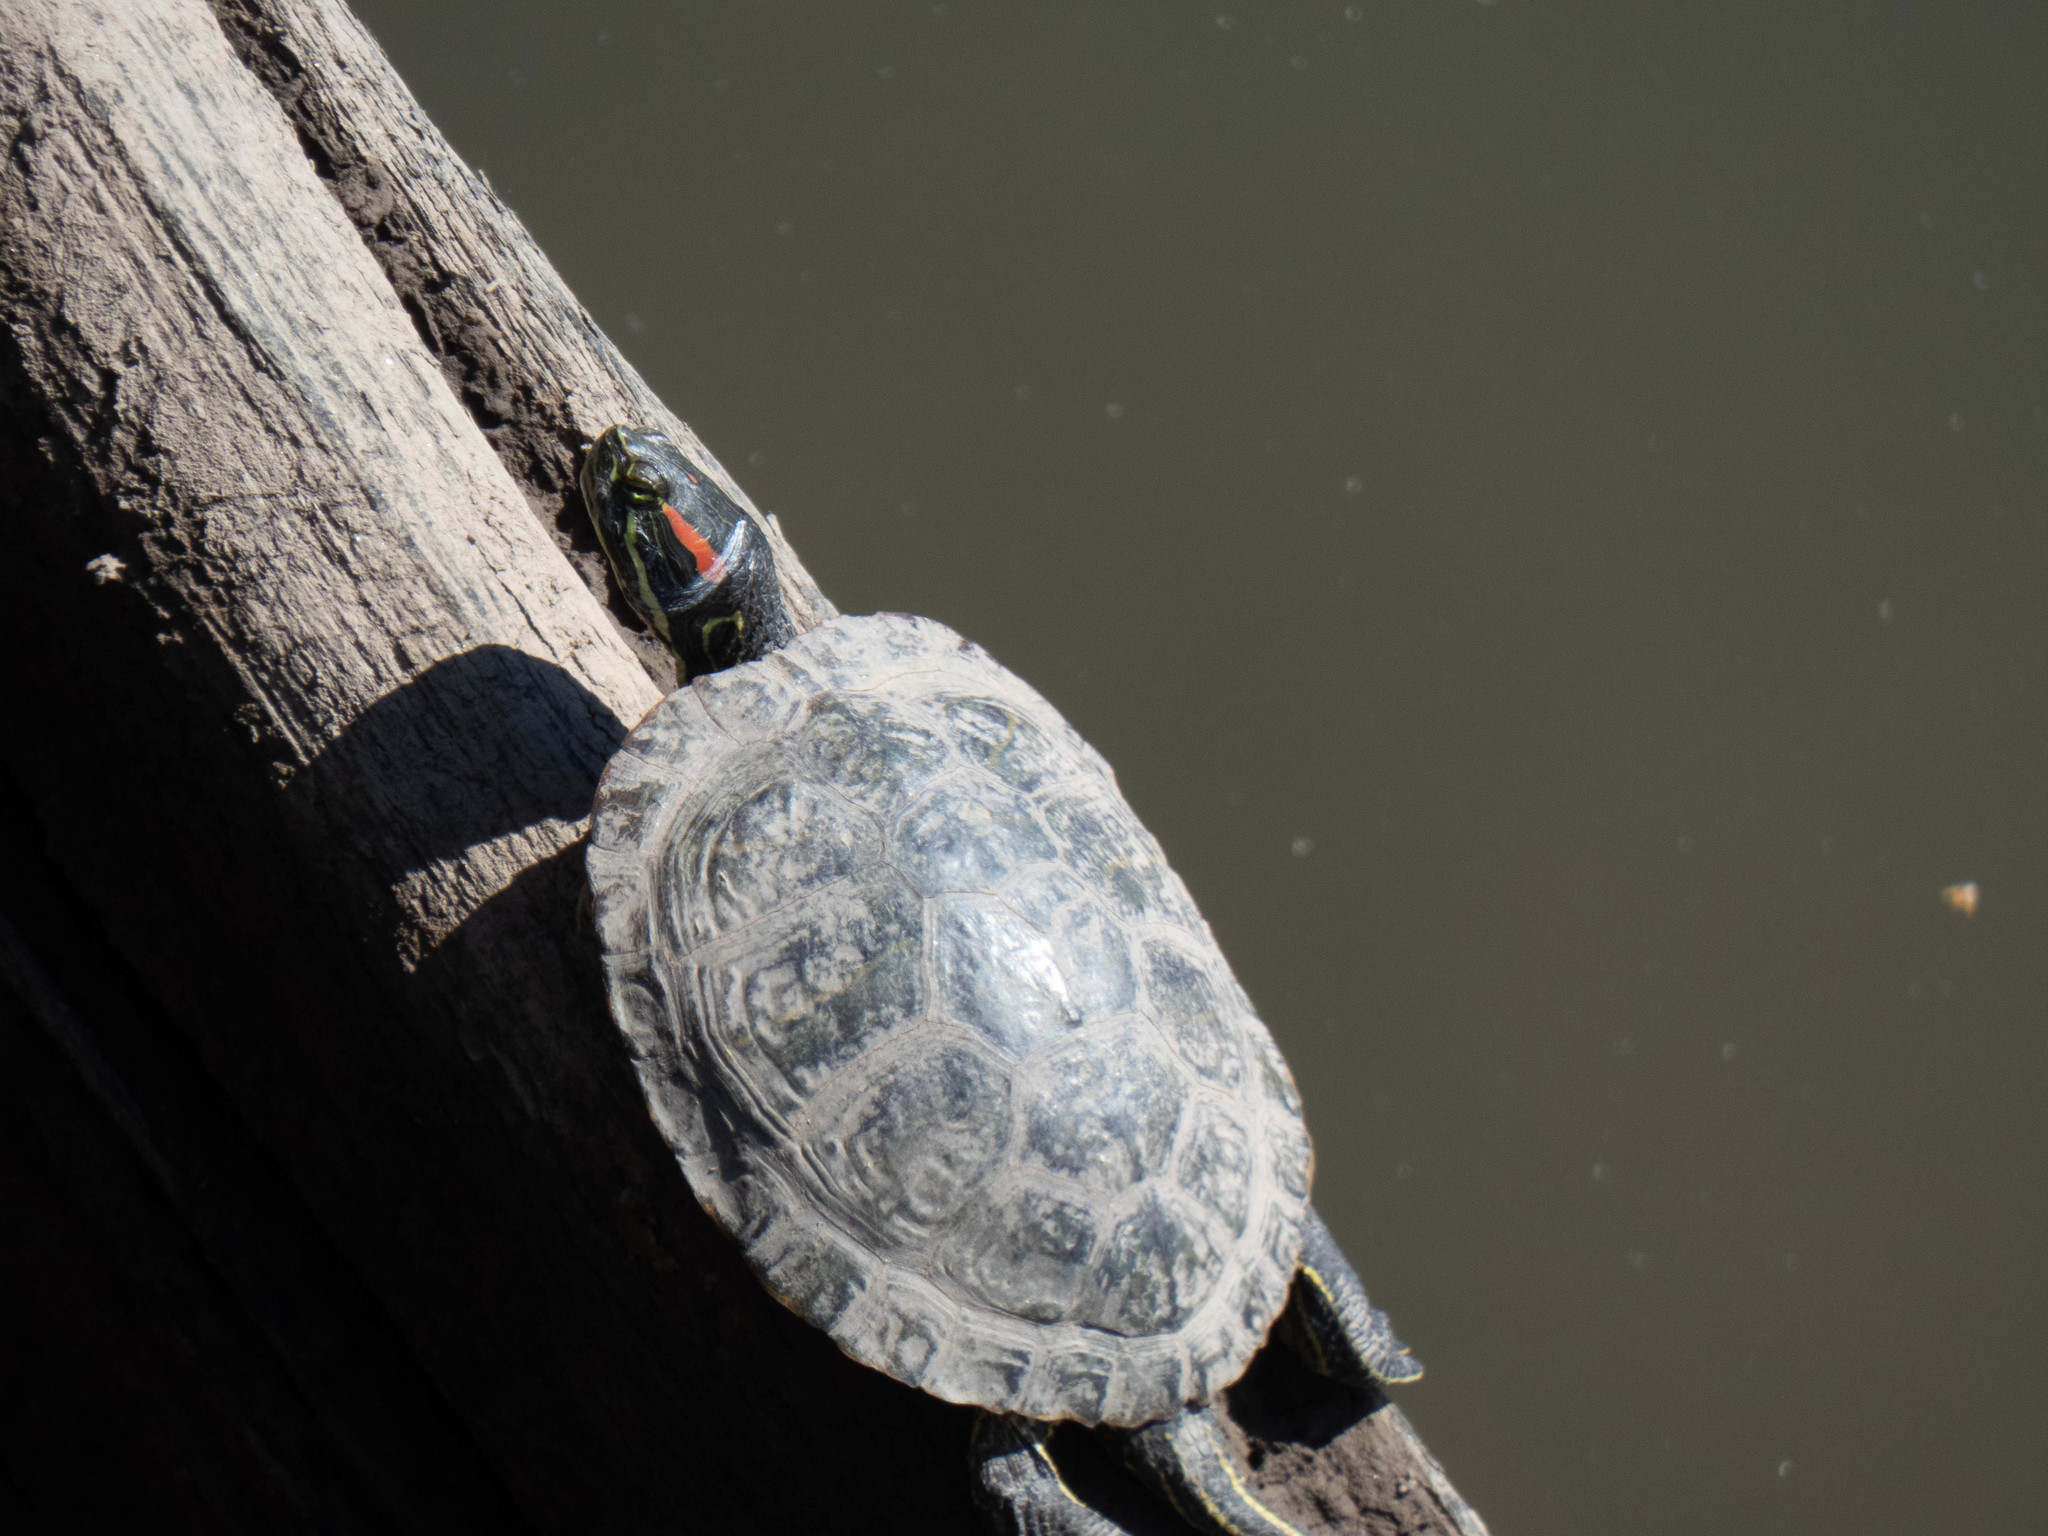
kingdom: Animalia
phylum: Chordata
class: Testudines
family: Emydidae
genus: Trachemys
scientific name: Trachemys scripta
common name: Slider
